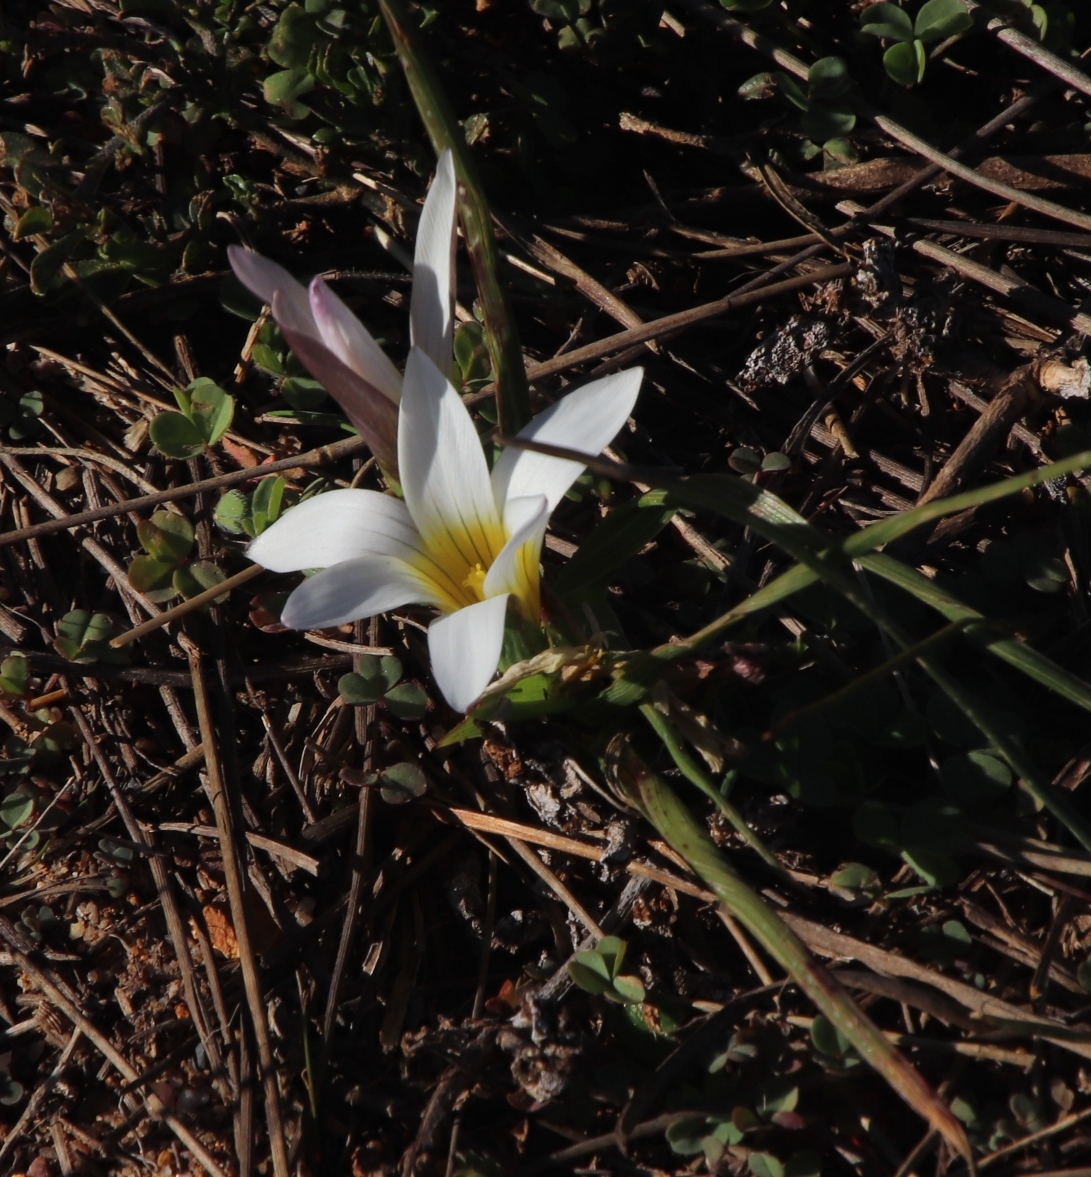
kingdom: Plantae
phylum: Tracheophyta
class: Liliopsida
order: Asparagales
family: Iridaceae
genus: Romulea
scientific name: Romulea flava
